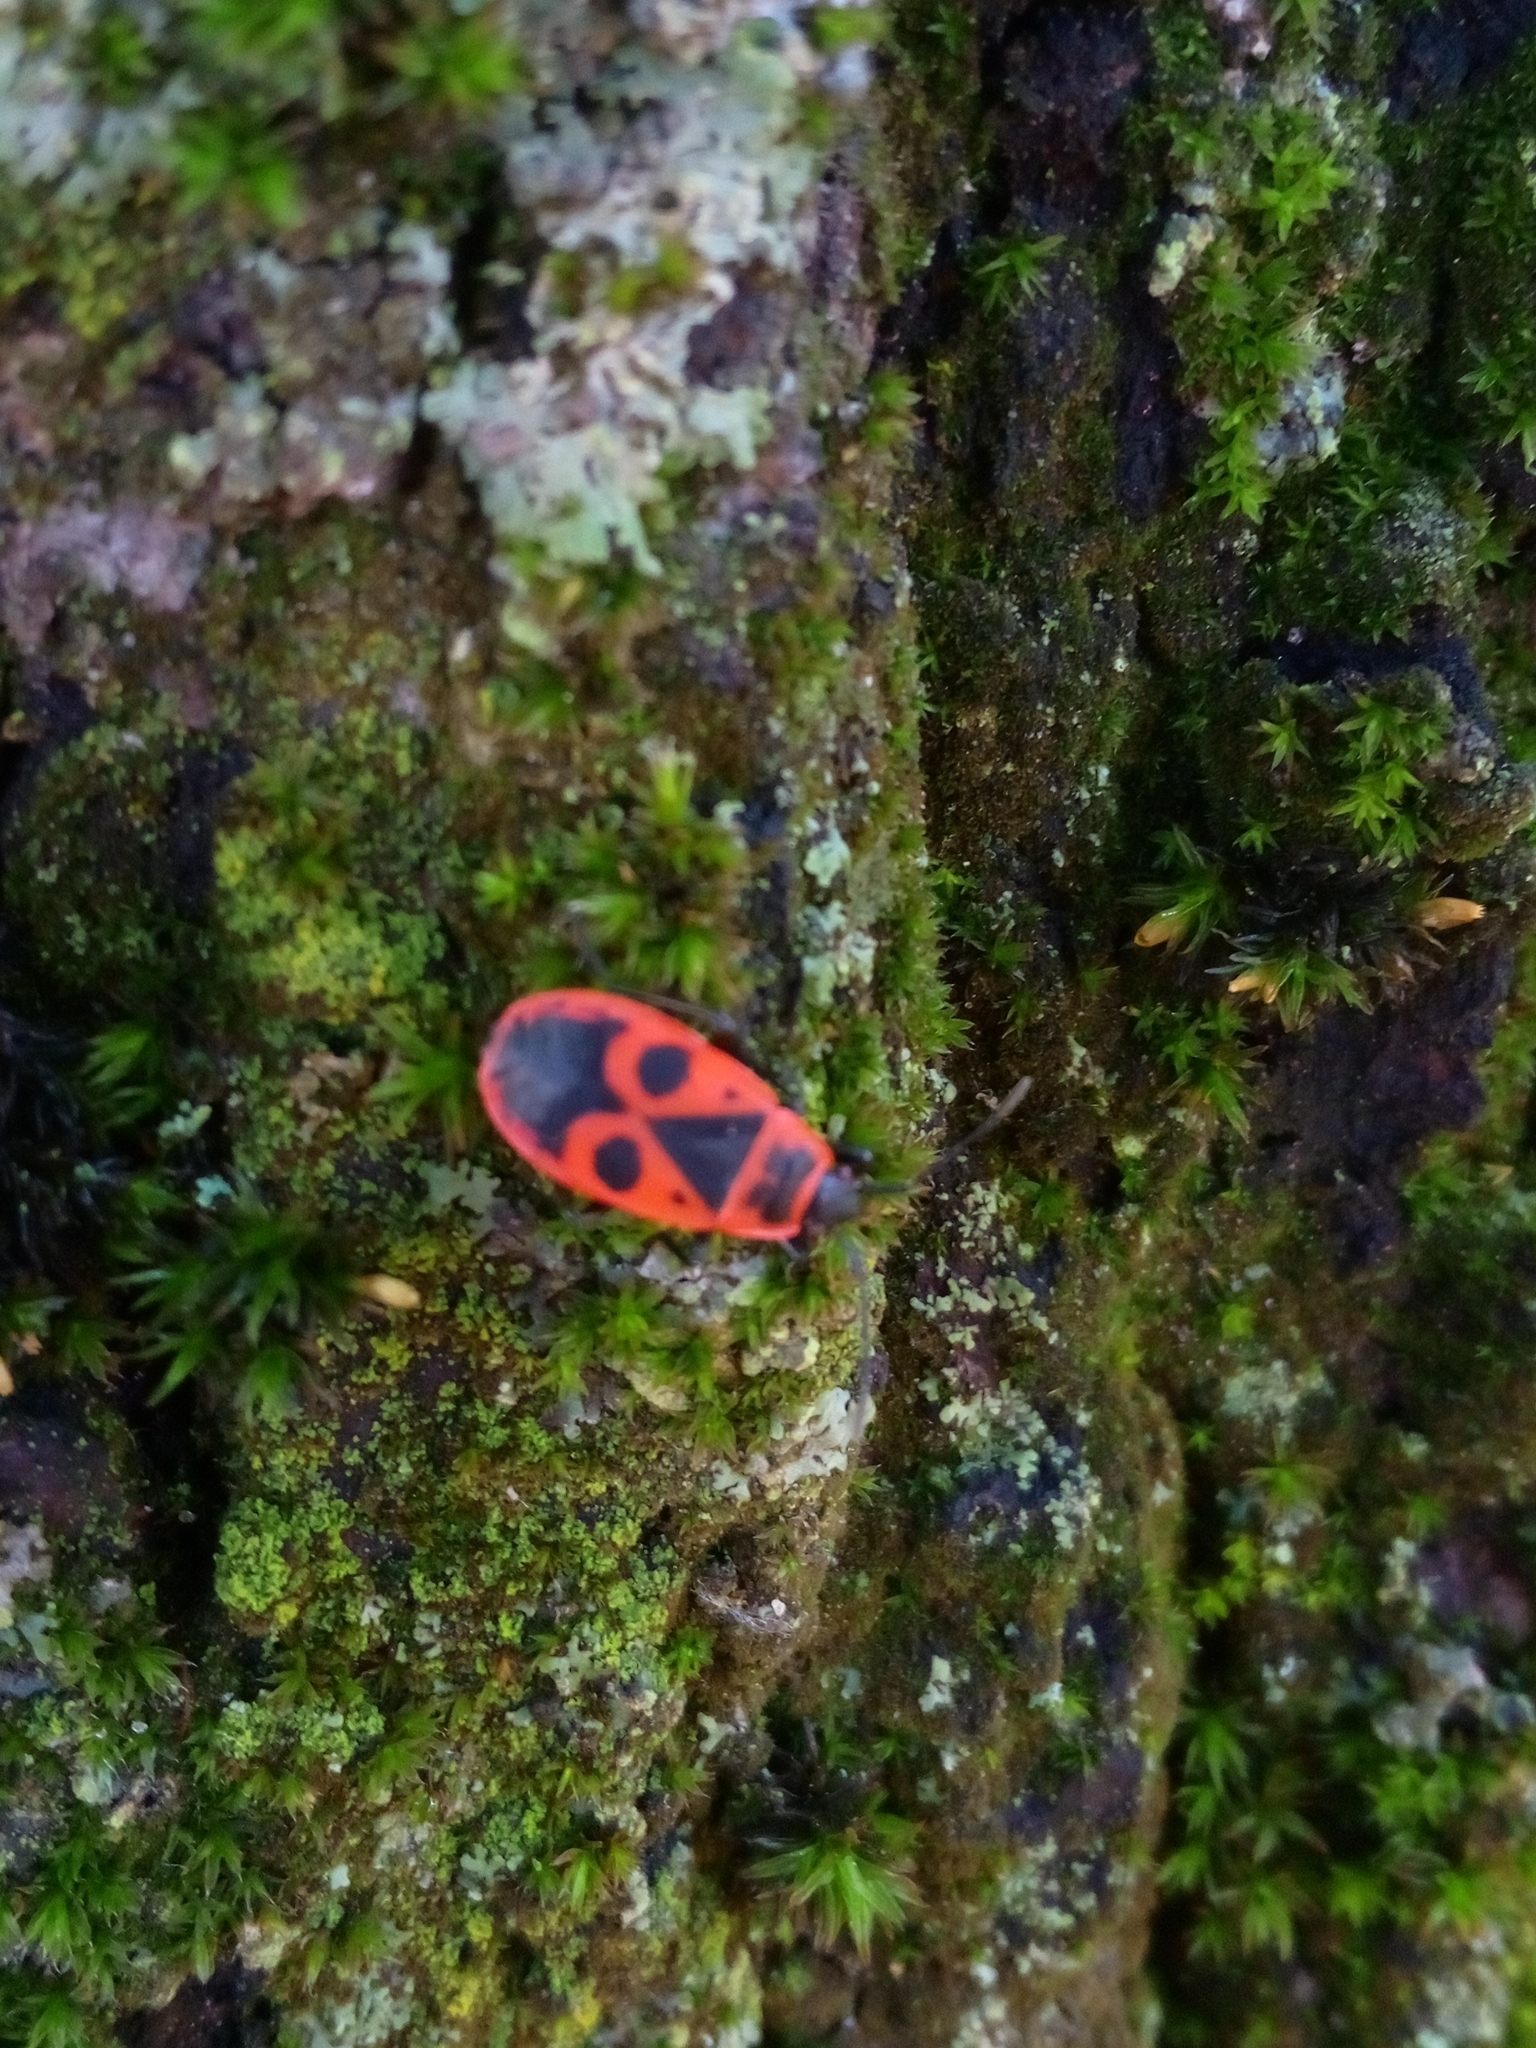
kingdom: Animalia
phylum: Arthropoda
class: Insecta
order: Hemiptera
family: Pyrrhocoridae
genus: Pyrrhocoris
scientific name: Pyrrhocoris apterus
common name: Firebug
